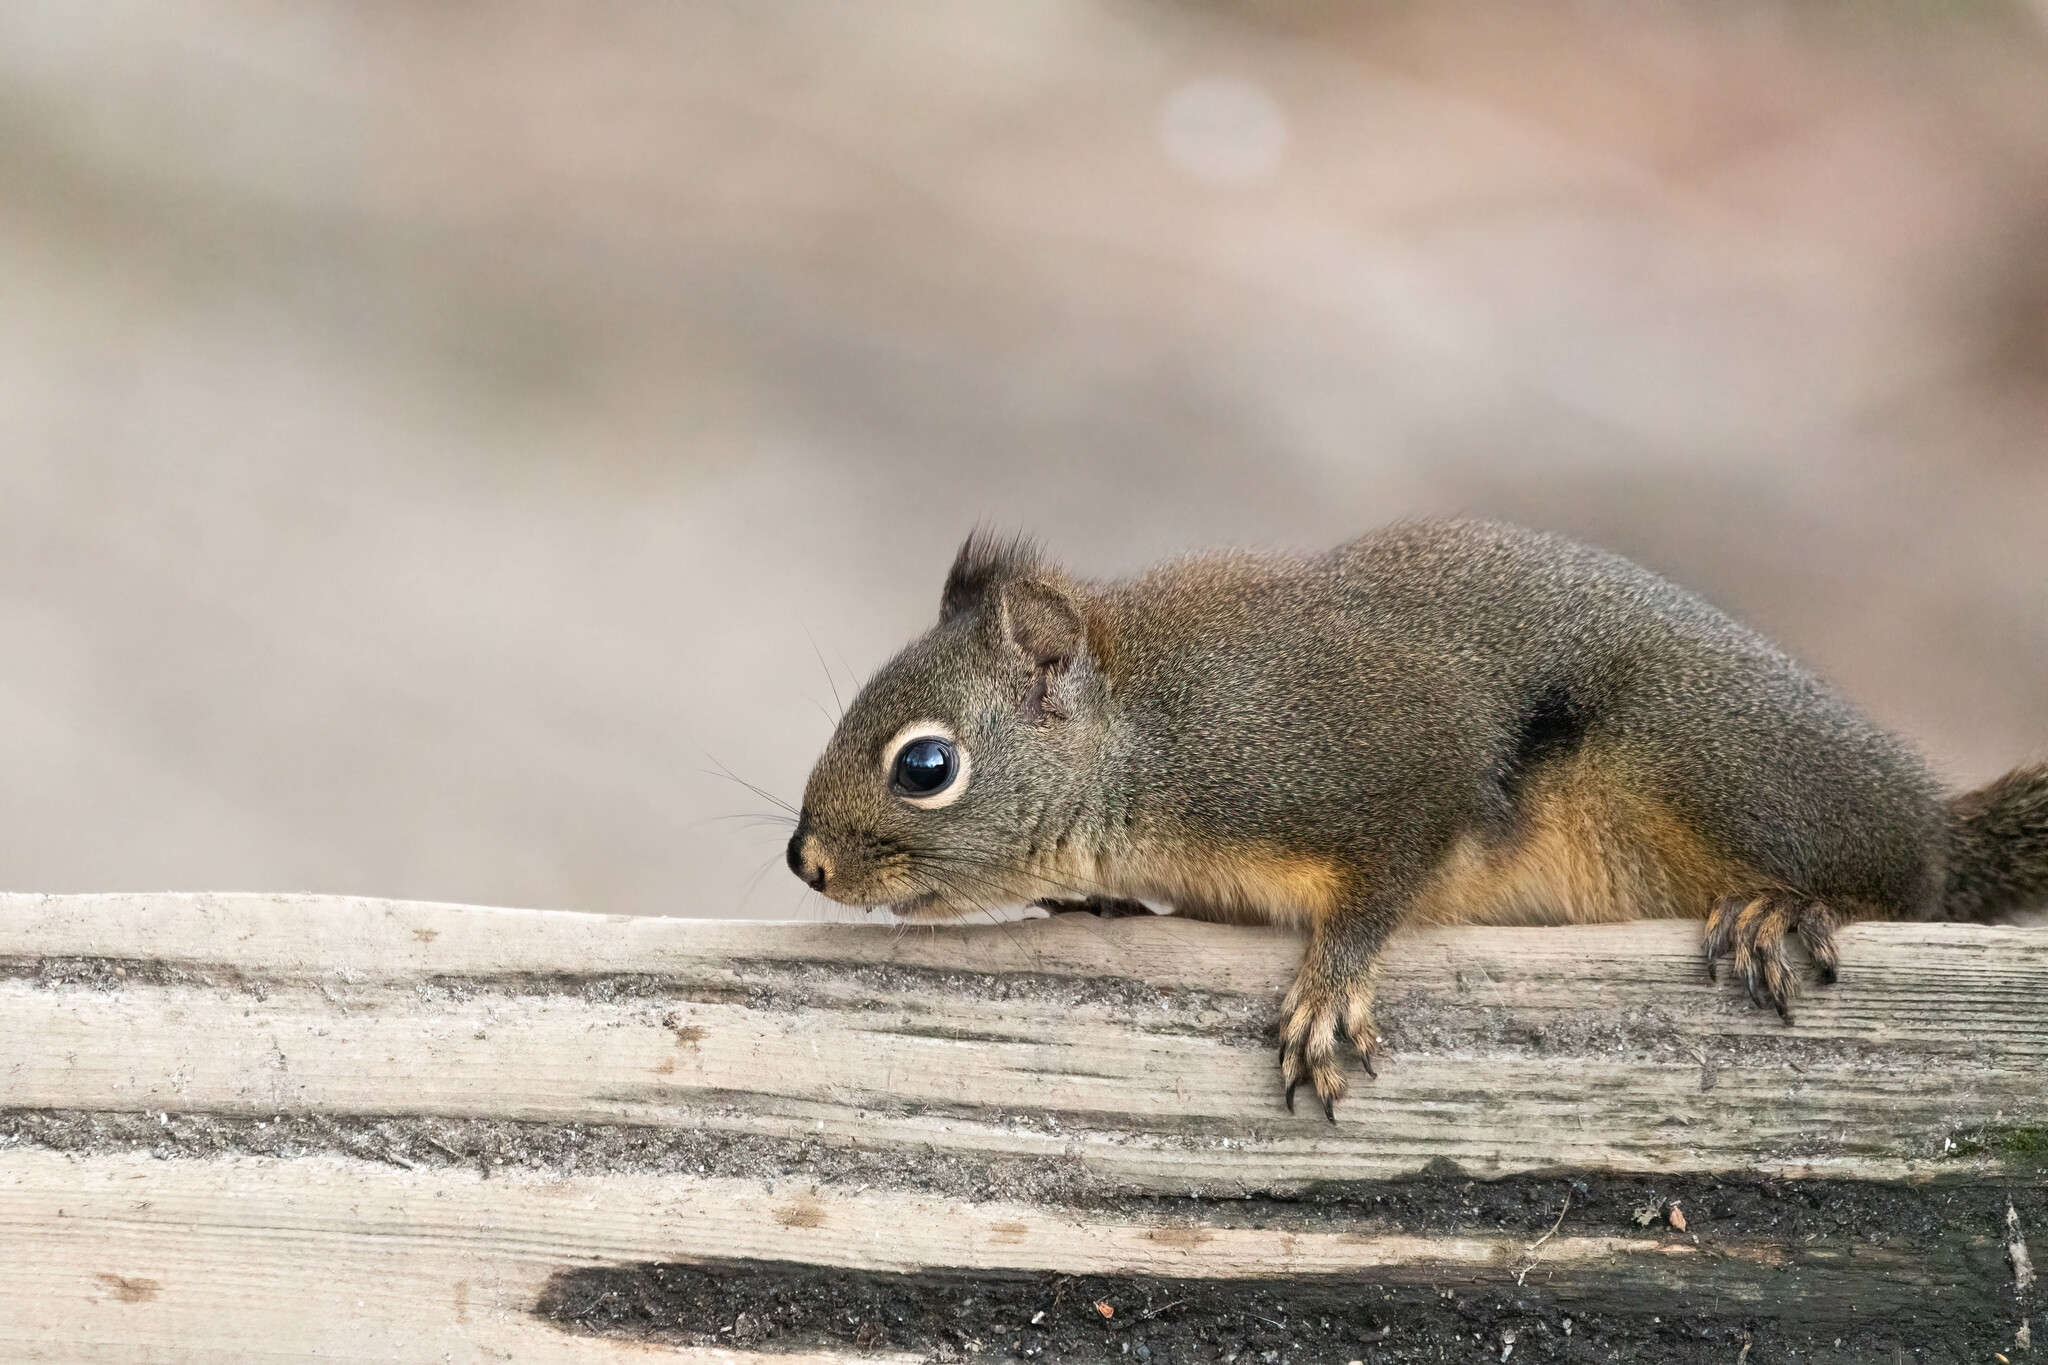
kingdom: Animalia
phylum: Chordata
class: Mammalia
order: Rodentia
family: Sciuridae
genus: Tamiasciurus
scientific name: Tamiasciurus douglasii
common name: Douglas's squirrel
